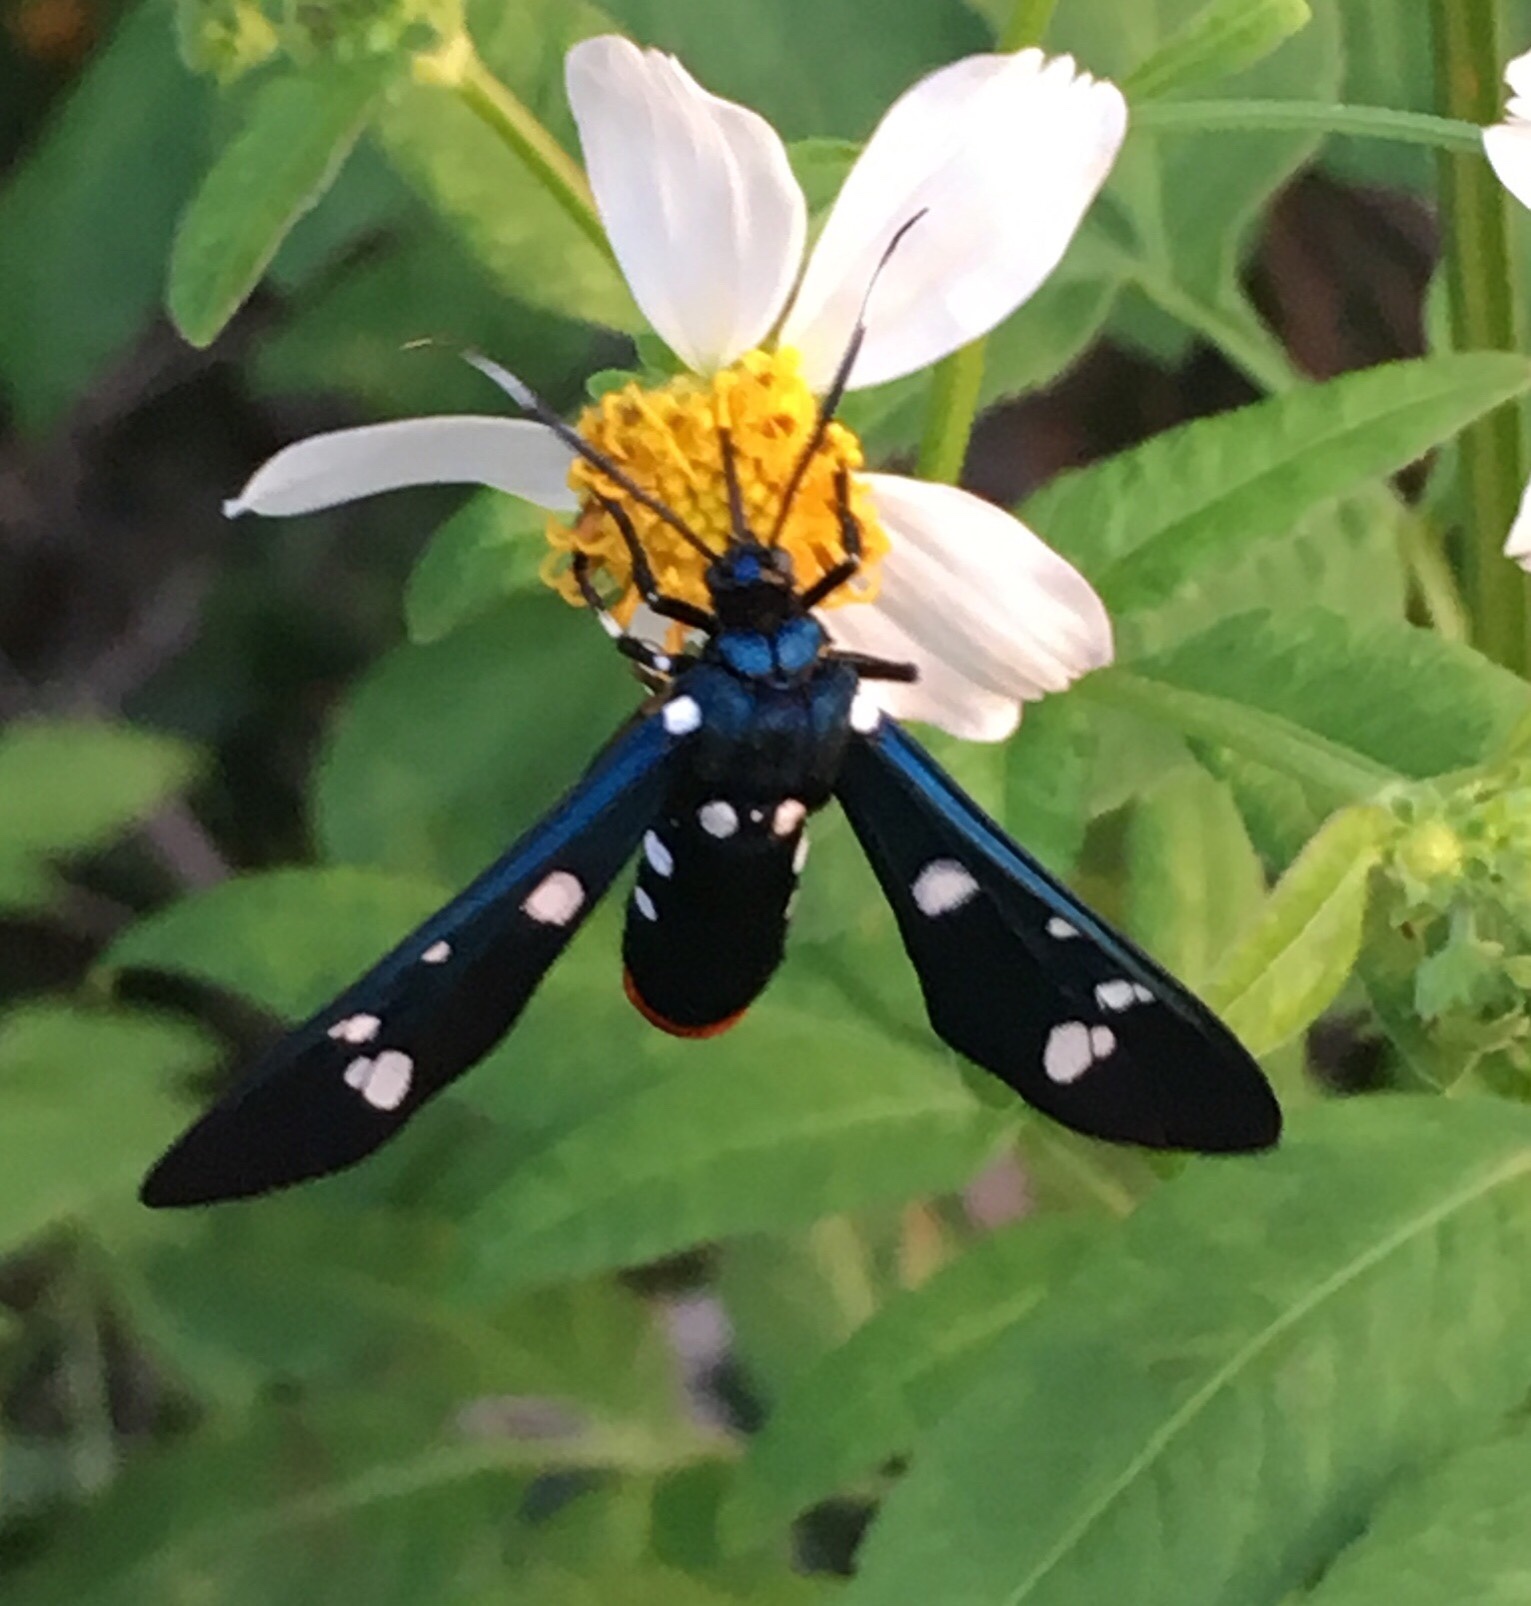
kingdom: Animalia
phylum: Arthropoda
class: Insecta
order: Lepidoptera
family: Erebidae
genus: Syntomeida
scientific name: Syntomeida epilais
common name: Polka-dot wasp moth
